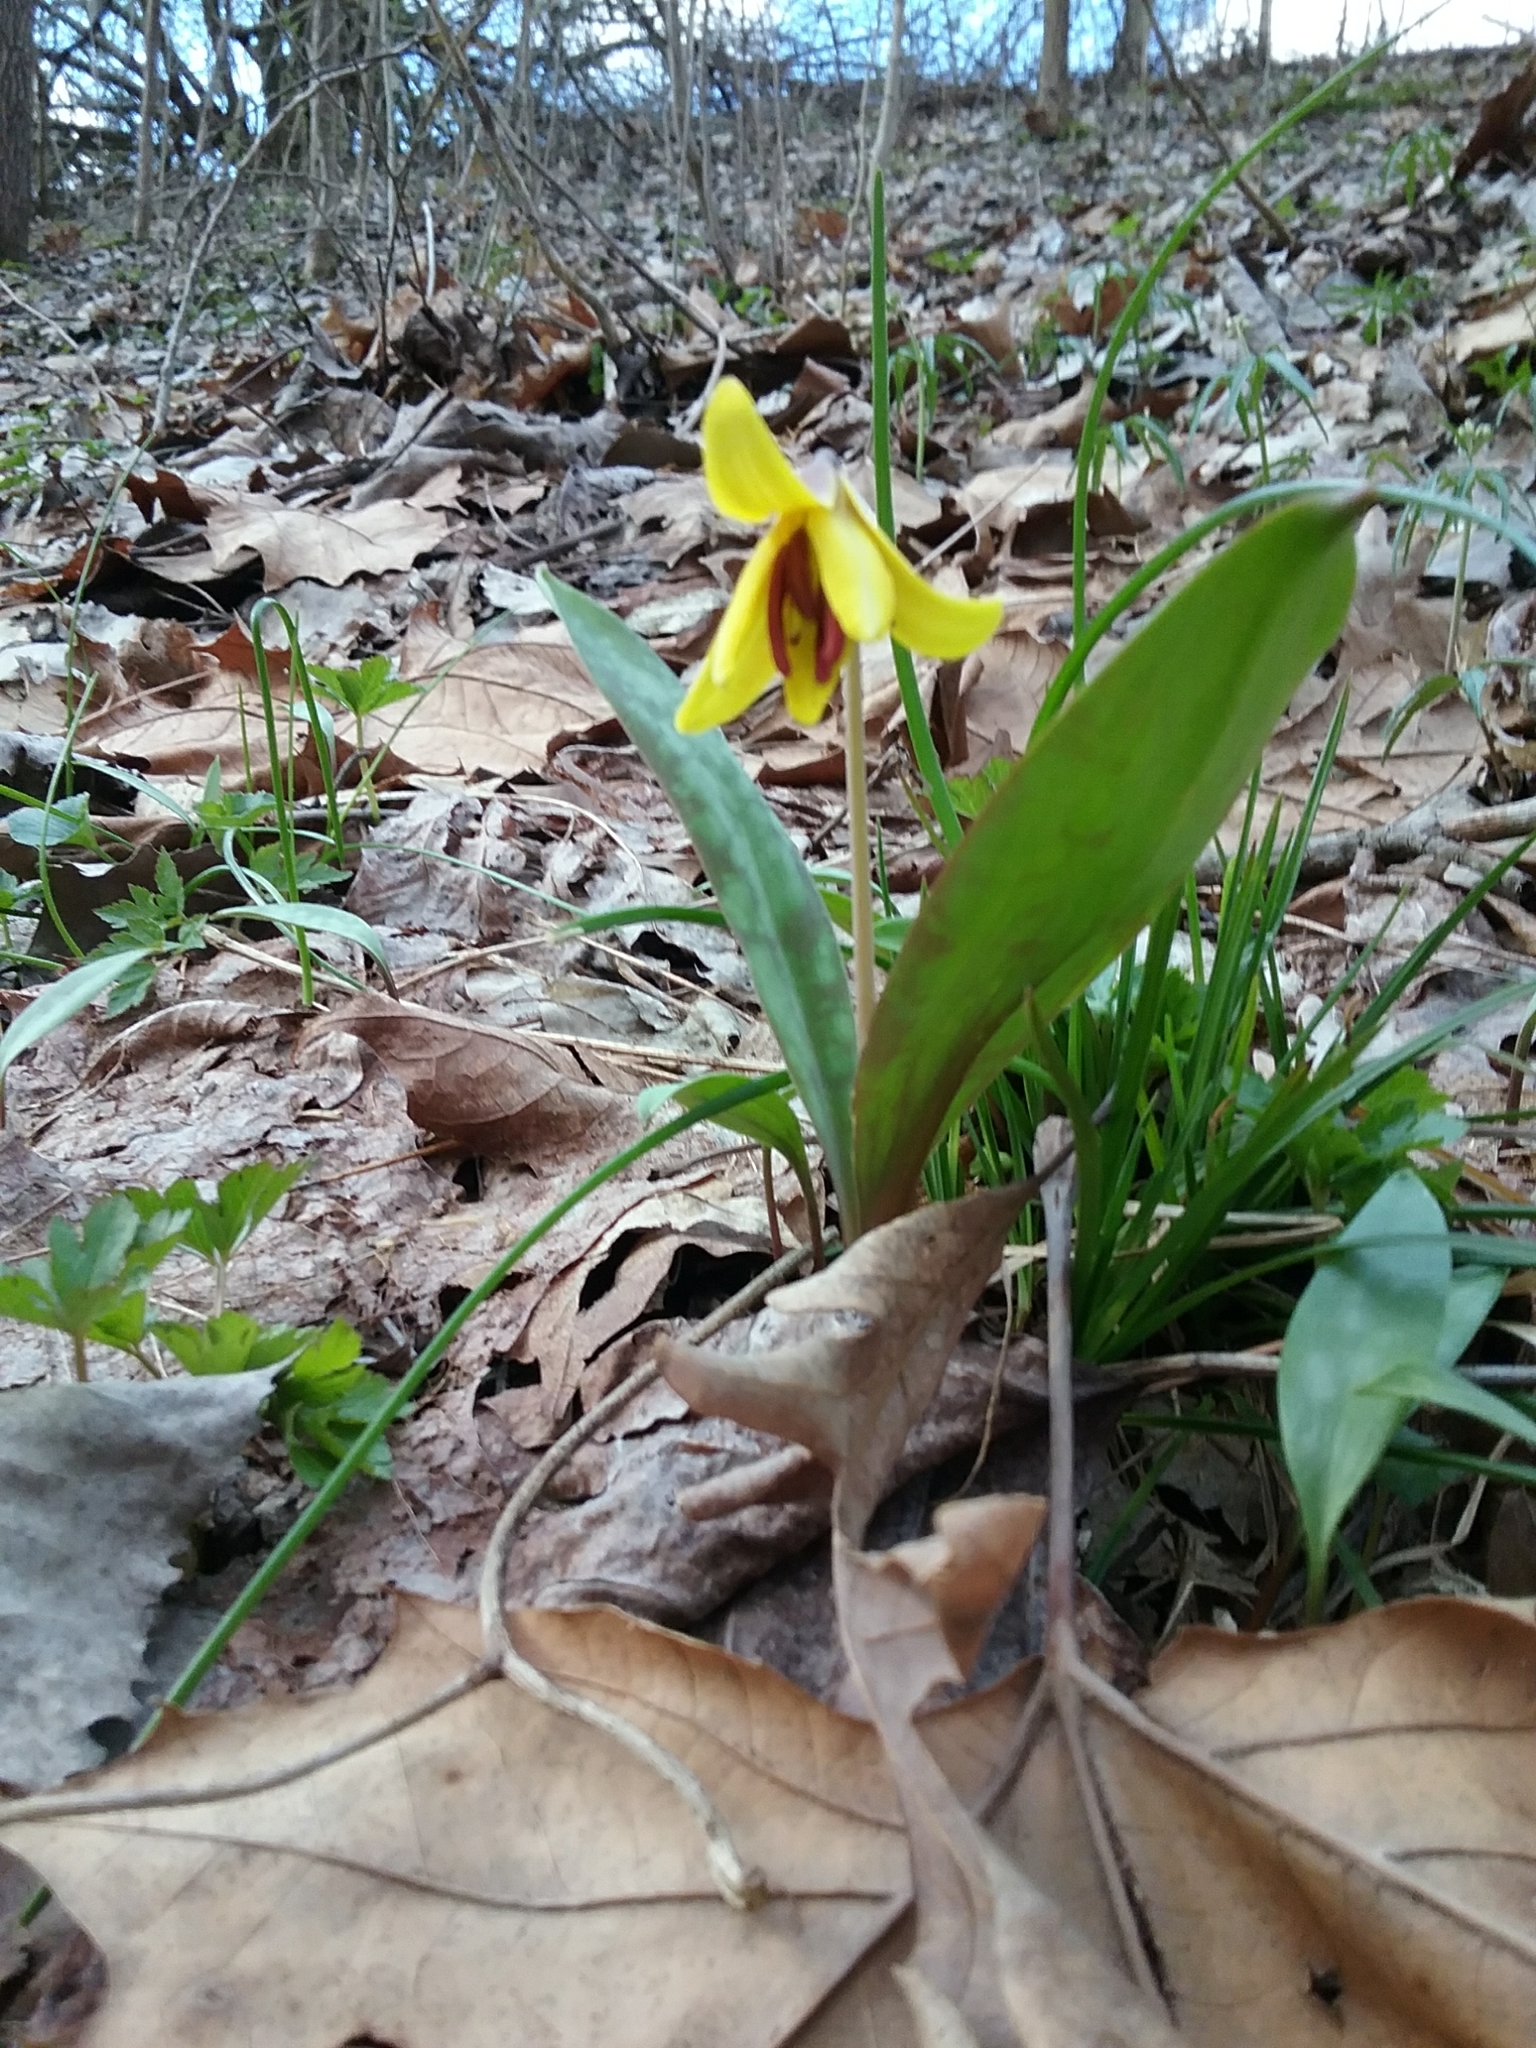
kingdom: Plantae
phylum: Tracheophyta
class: Liliopsida
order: Liliales
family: Liliaceae
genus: Erythronium
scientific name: Erythronium americanum
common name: Yellow adder's-tongue
